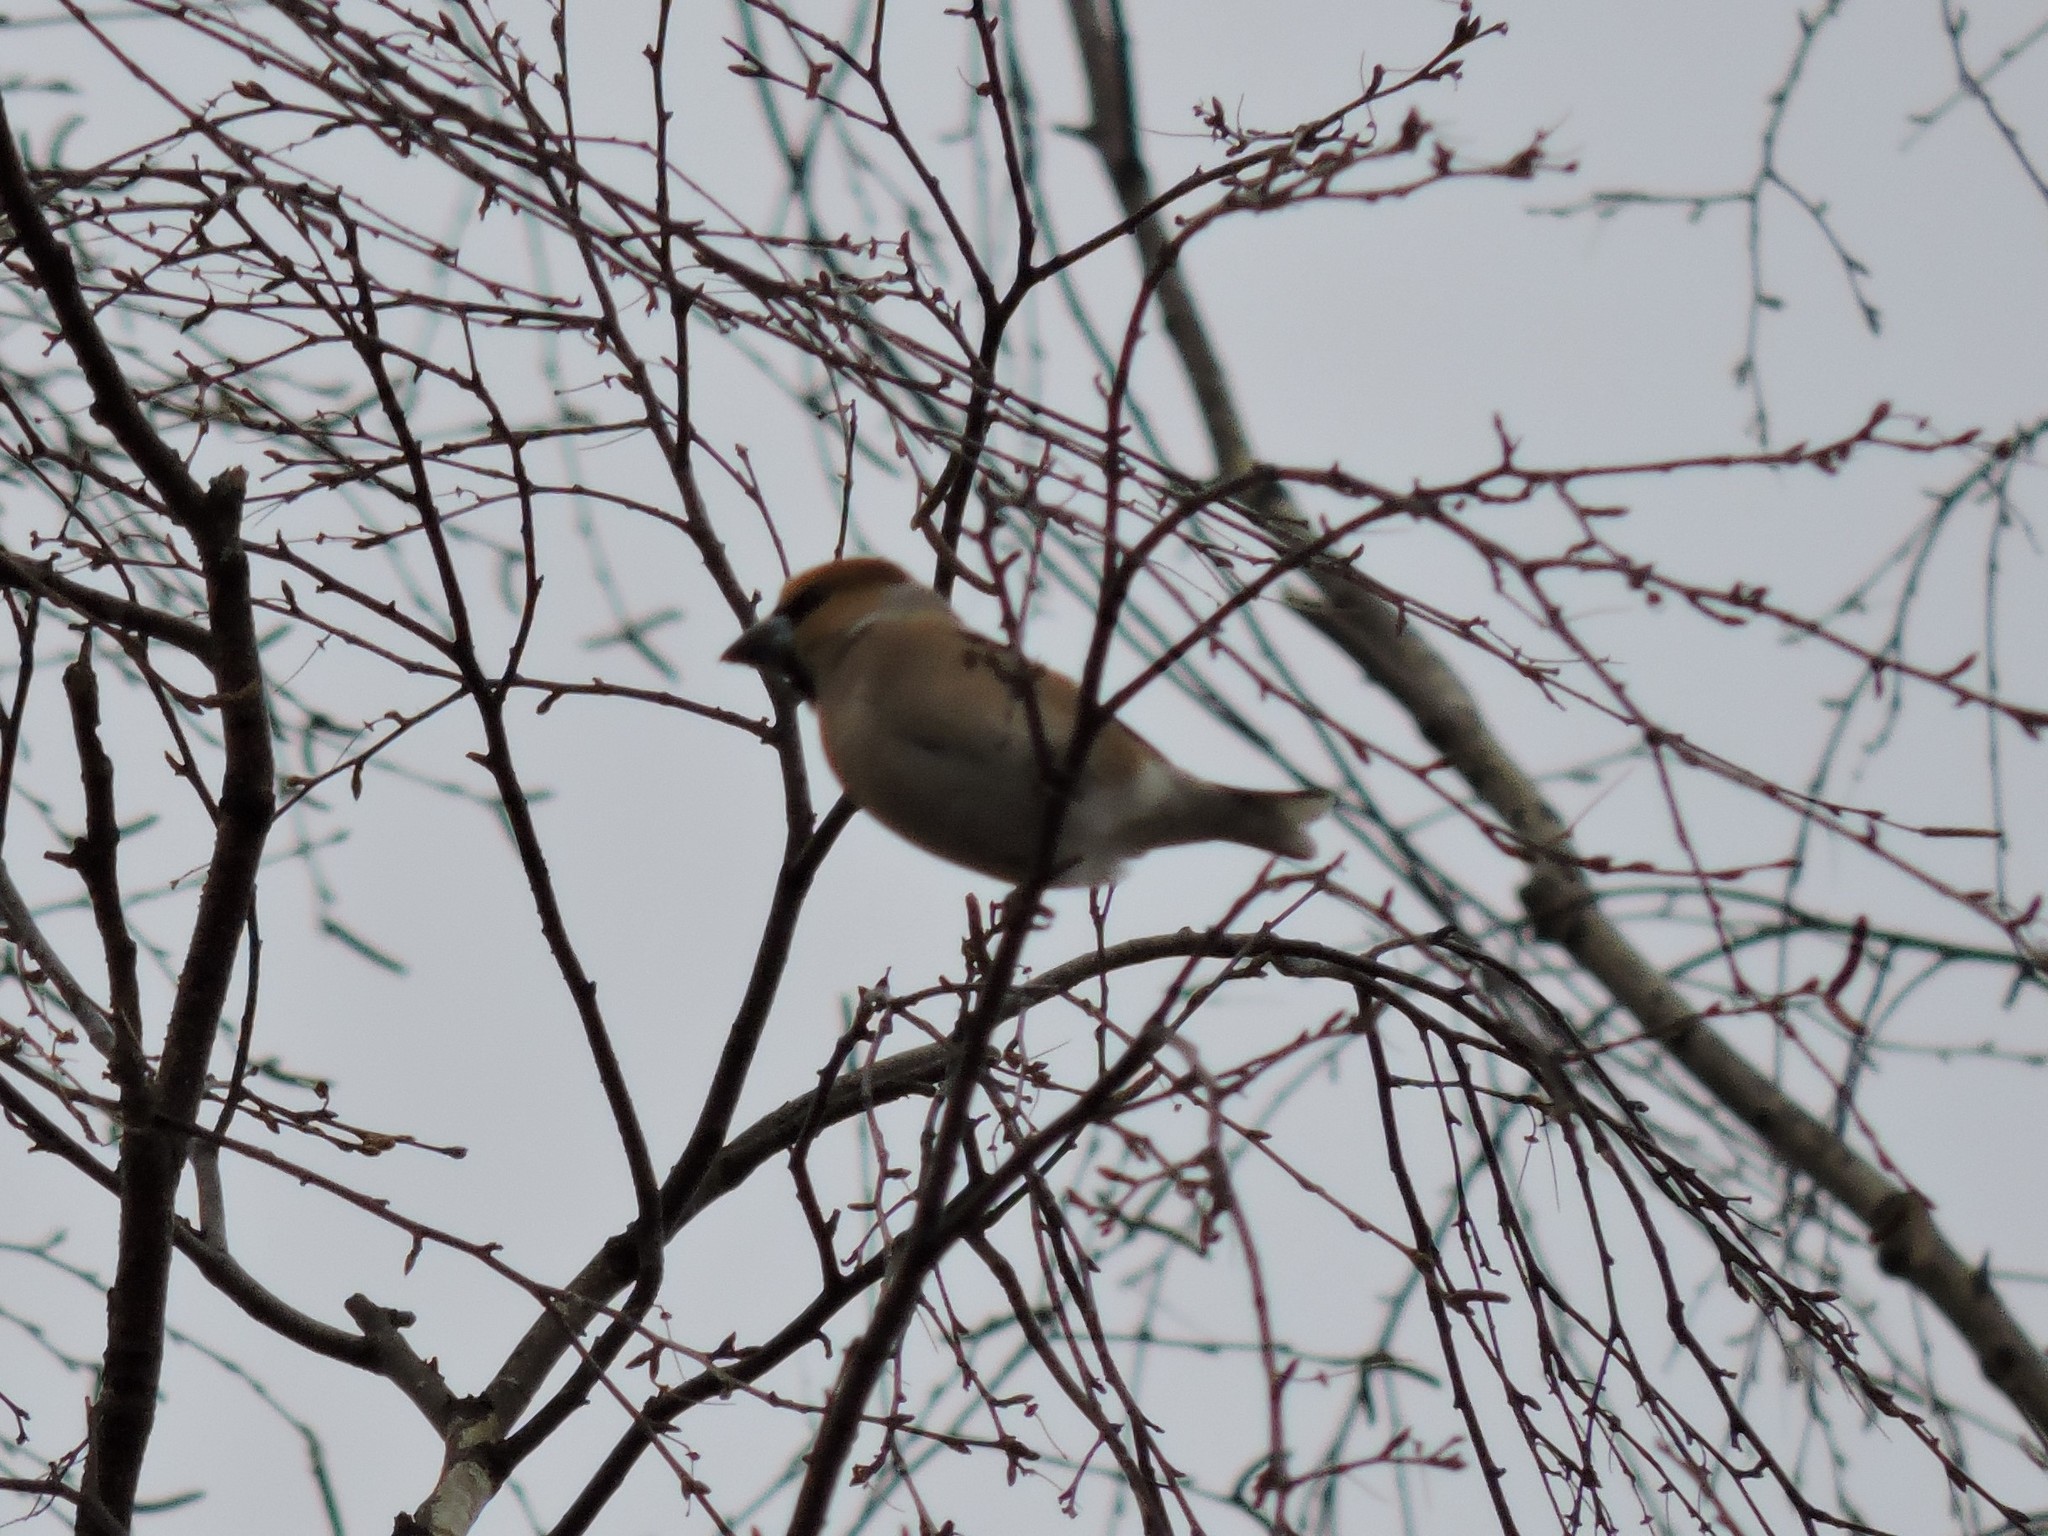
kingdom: Animalia
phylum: Chordata
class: Aves
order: Passeriformes
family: Fringillidae
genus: Coccothraustes
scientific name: Coccothraustes coccothraustes
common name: Hawfinch
